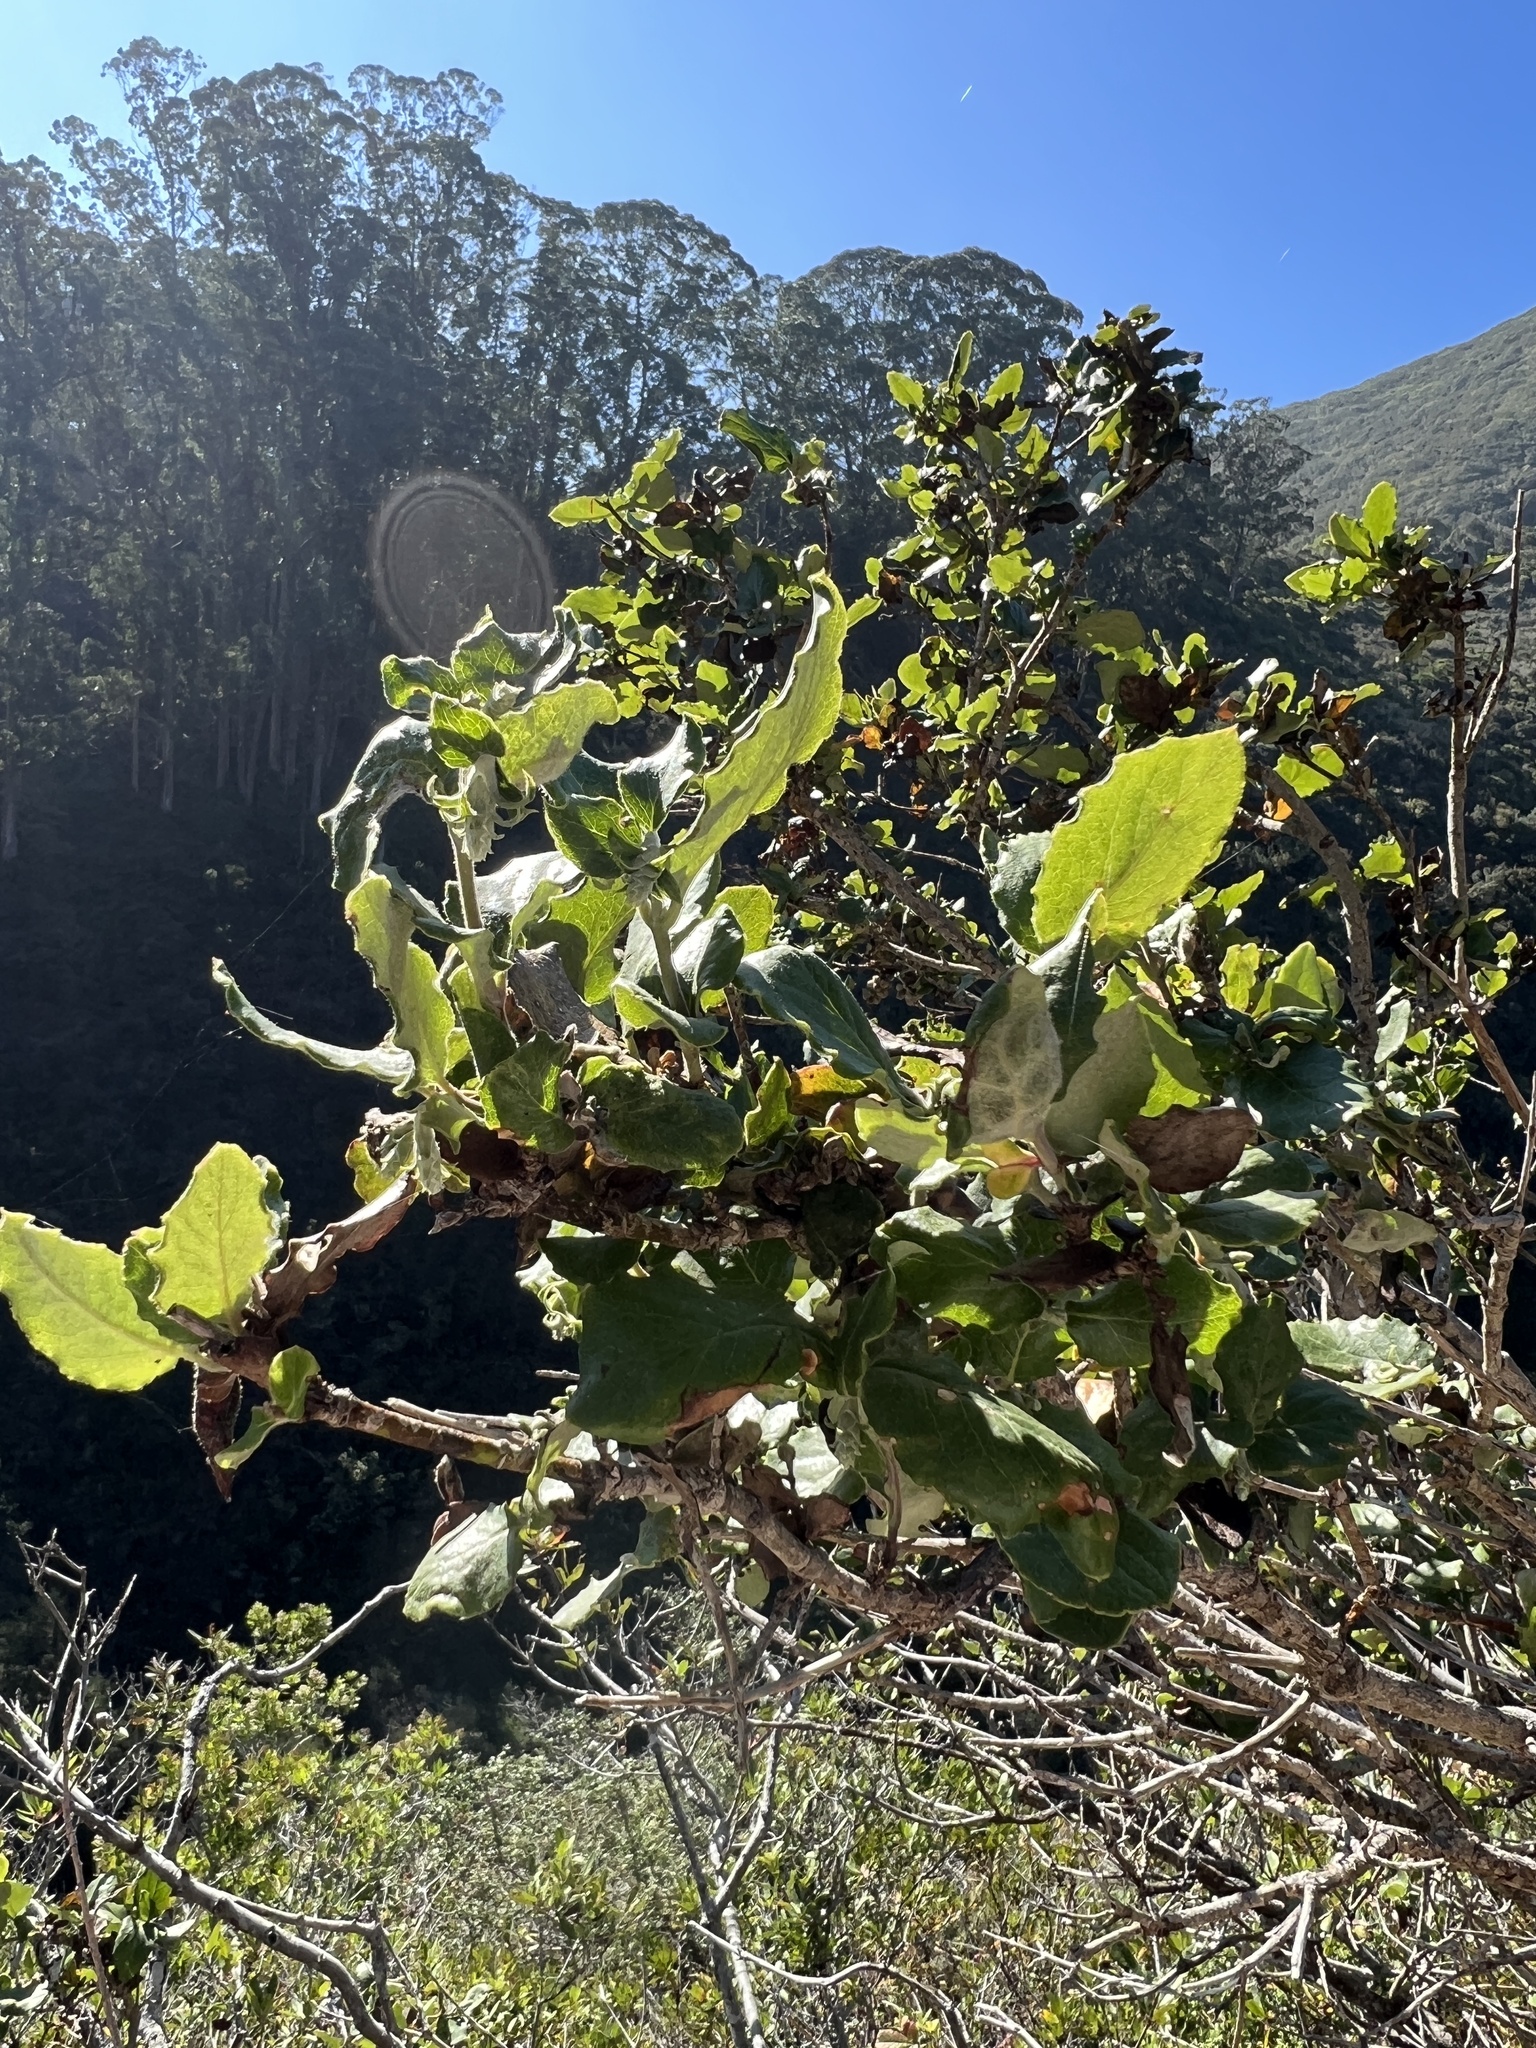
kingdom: Plantae
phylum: Tracheophyta
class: Magnoliopsida
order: Garryales
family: Garryaceae
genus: Garrya
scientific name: Garrya elliptica
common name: Silk-tassel
